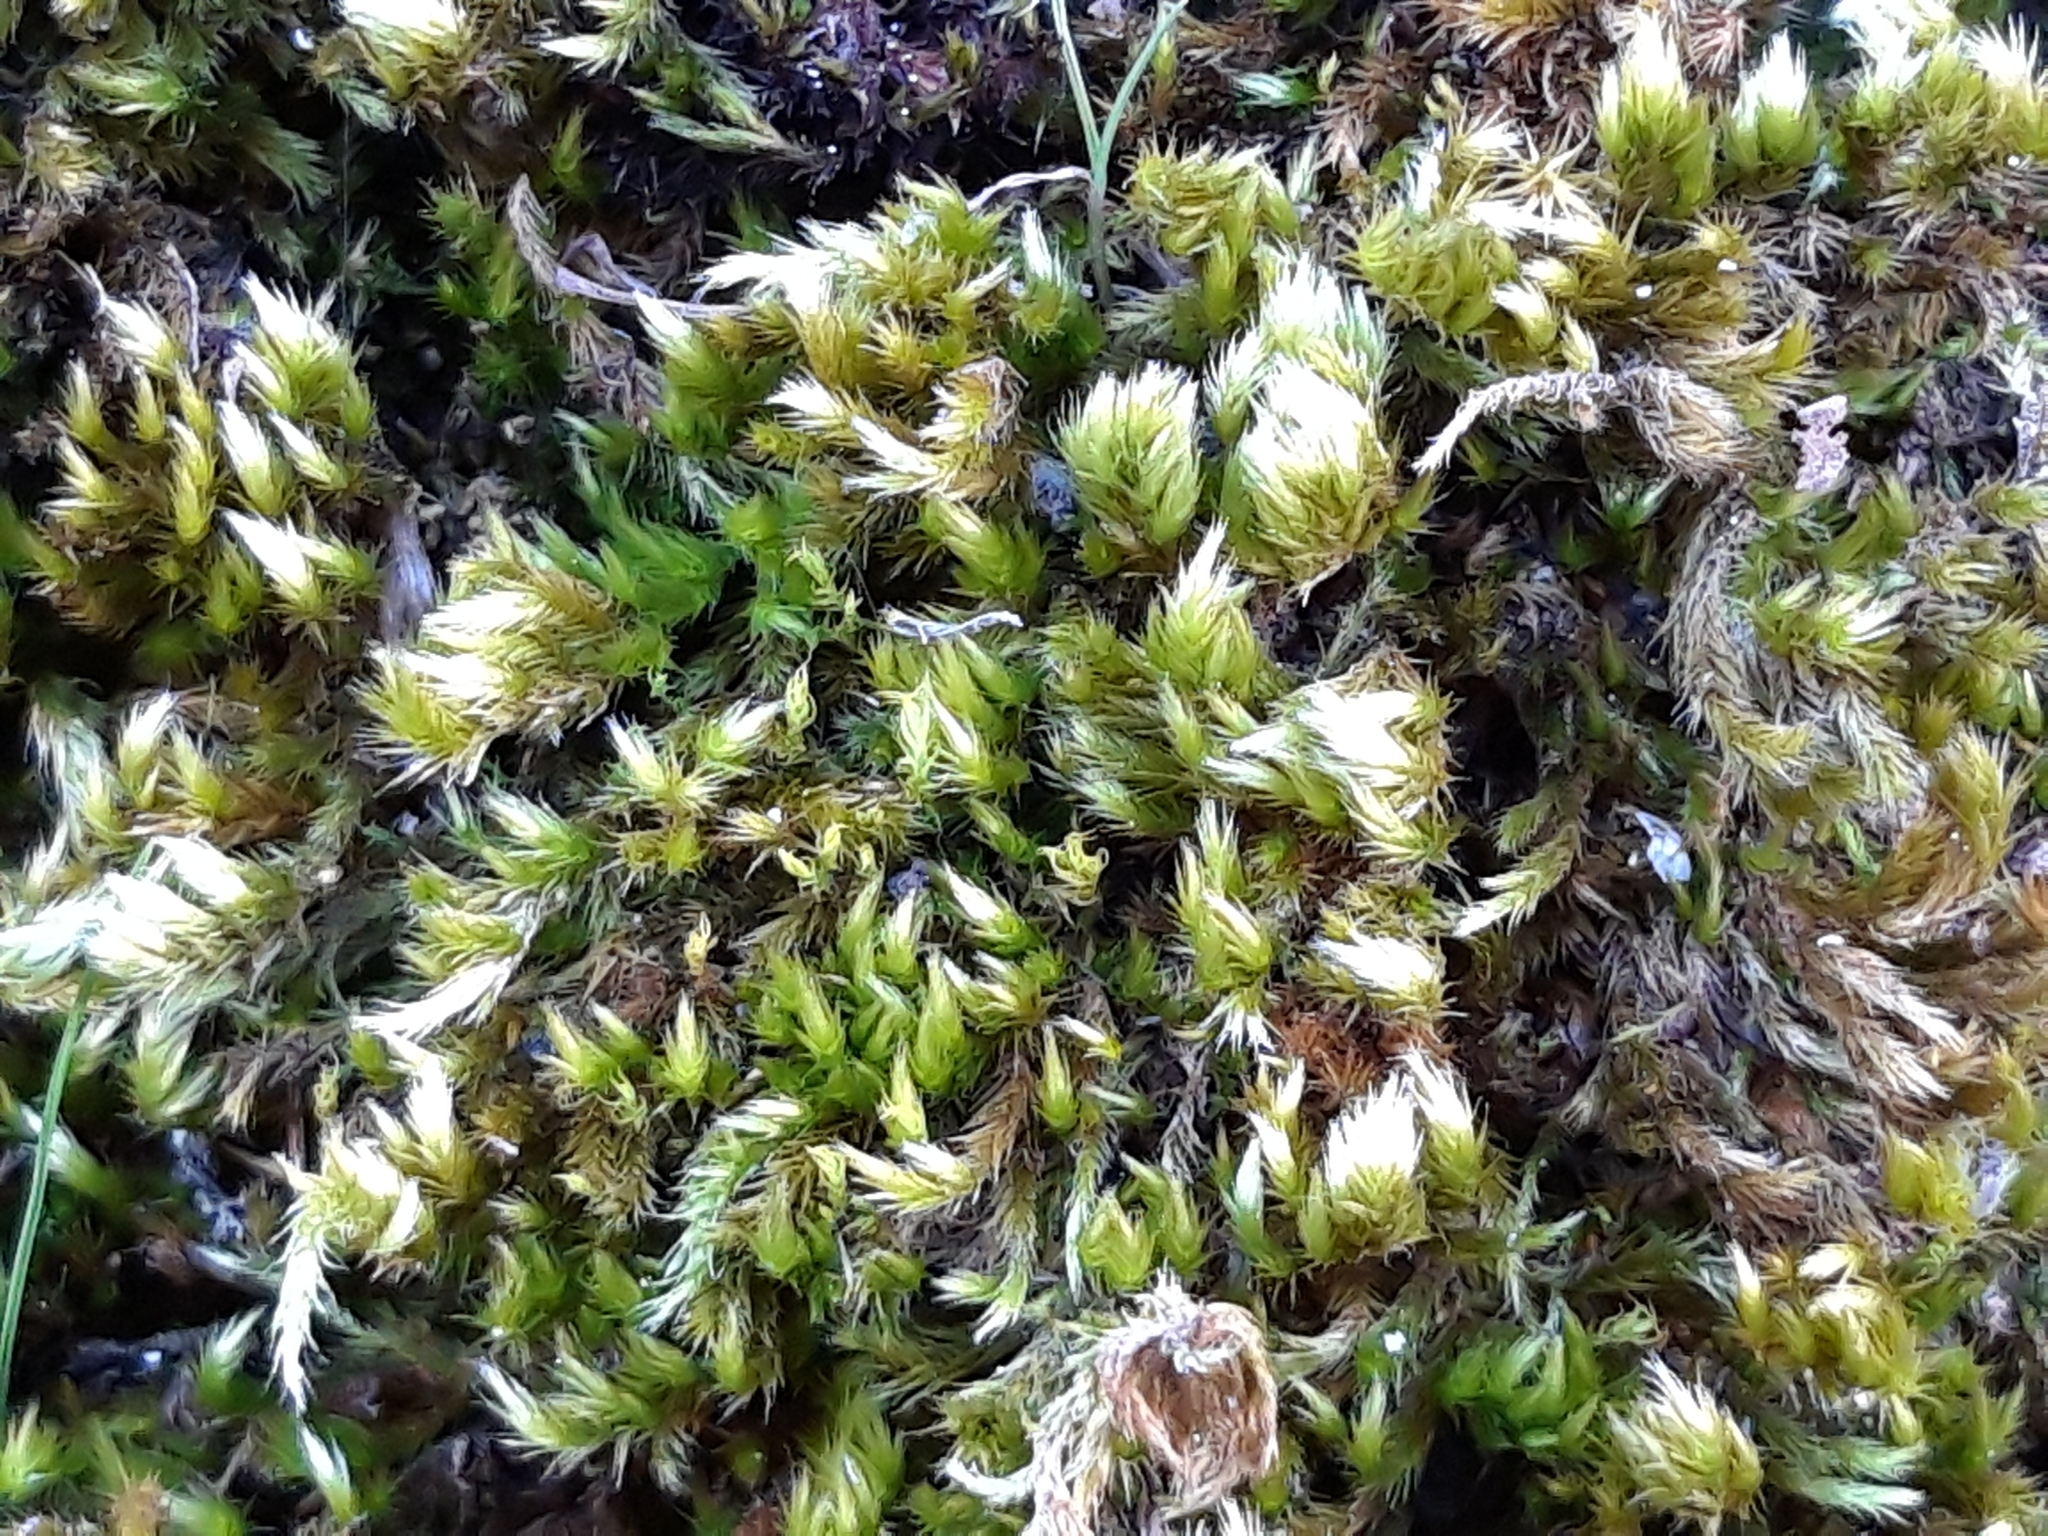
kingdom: Plantae
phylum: Bryophyta
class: Bryopsida
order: Hypnales
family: Brachytheciaceae
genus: Homalothecium
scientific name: Homalothecium sericeum
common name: Silky wall feather-moss
